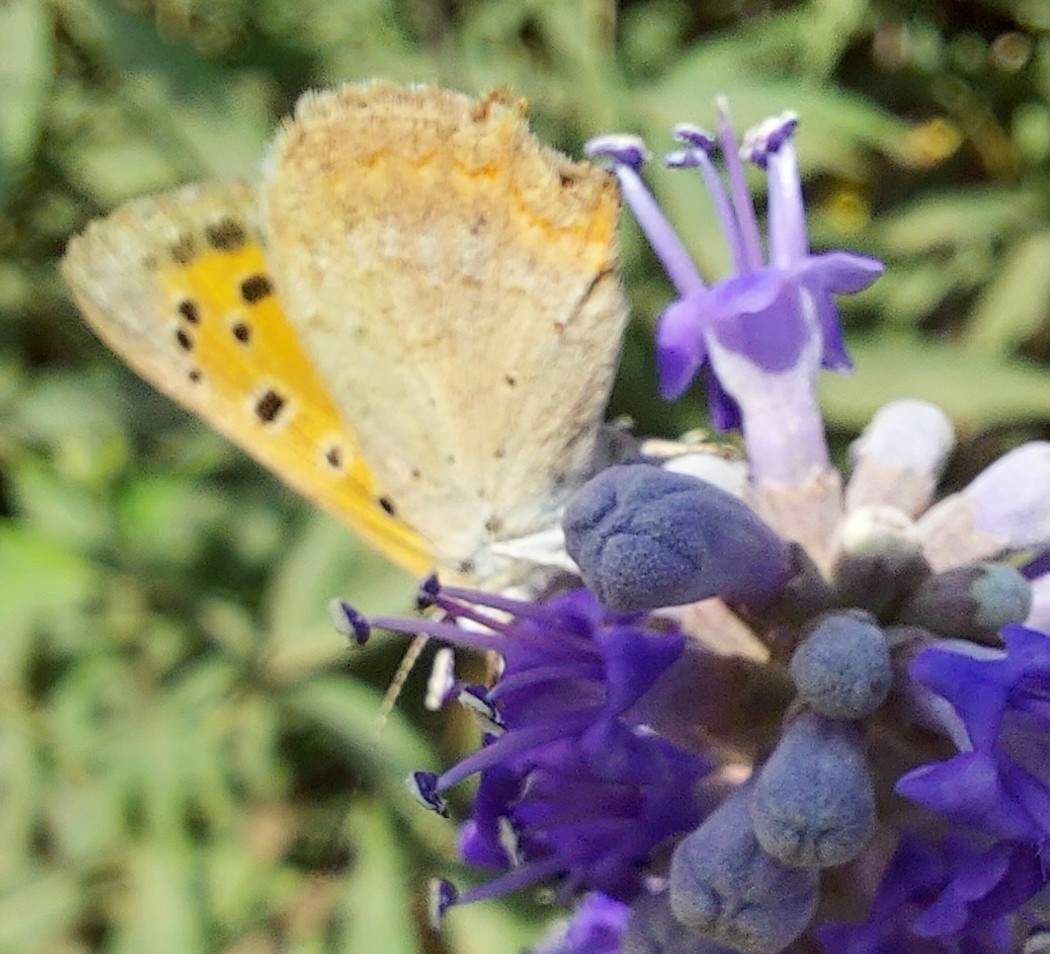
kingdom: Animalia
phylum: Arthropoda
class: Insecta
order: Lepidoptera
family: Lycaenidae
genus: Lycaena
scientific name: Lycaena phlaeas
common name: Small copper
